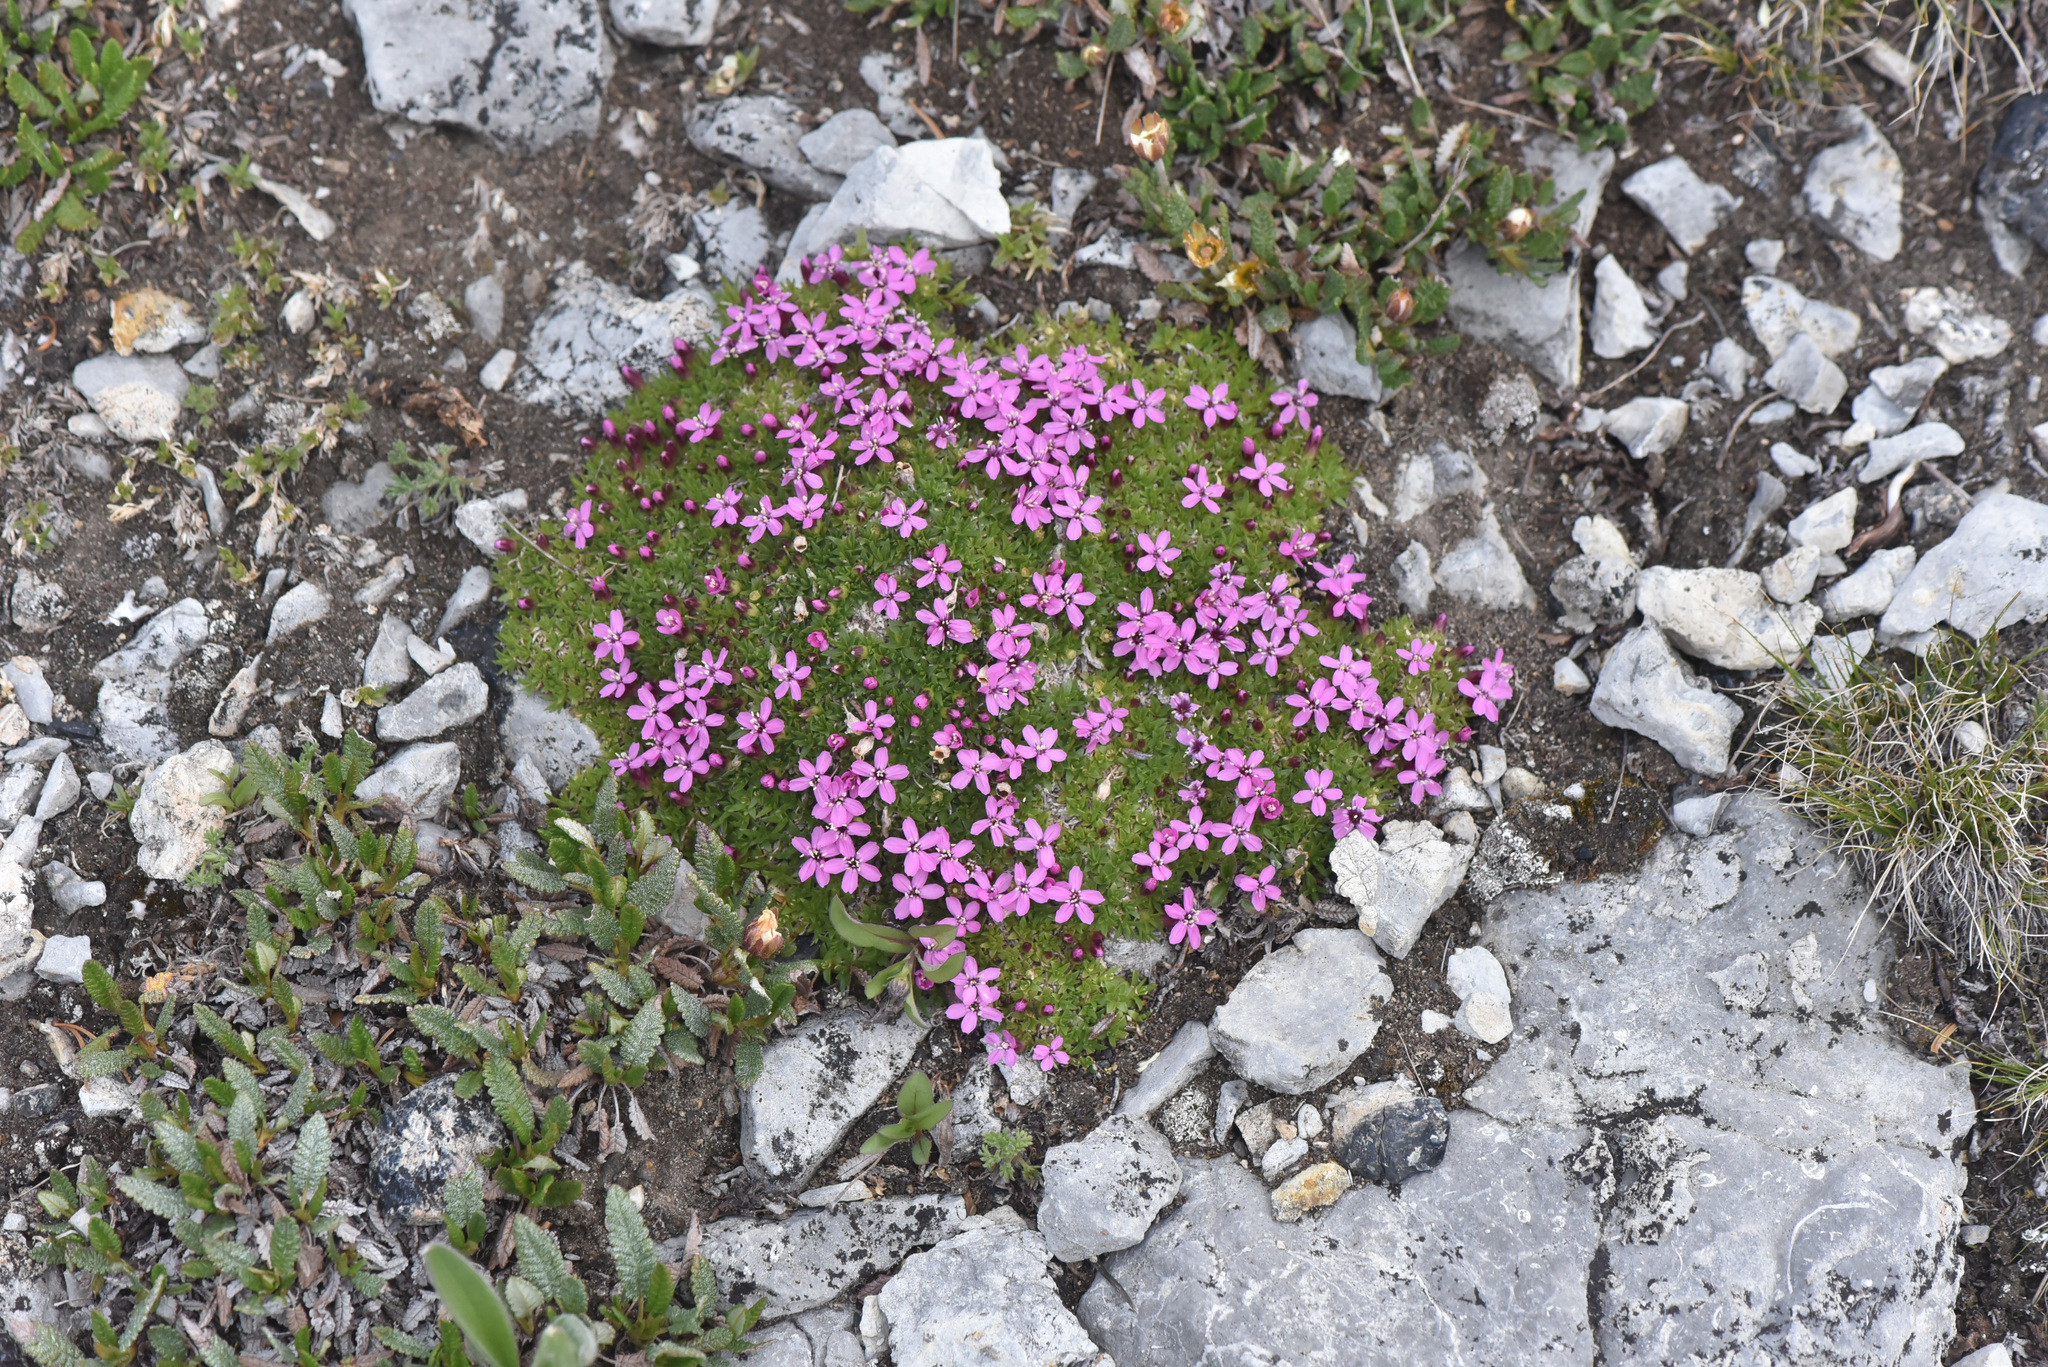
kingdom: Plantae
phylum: Tracheophyta
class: Magnoliopsida
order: Caryophyllales
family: Caryophyllaceae
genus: Silene
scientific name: Silene acaulis
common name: Moss campion
